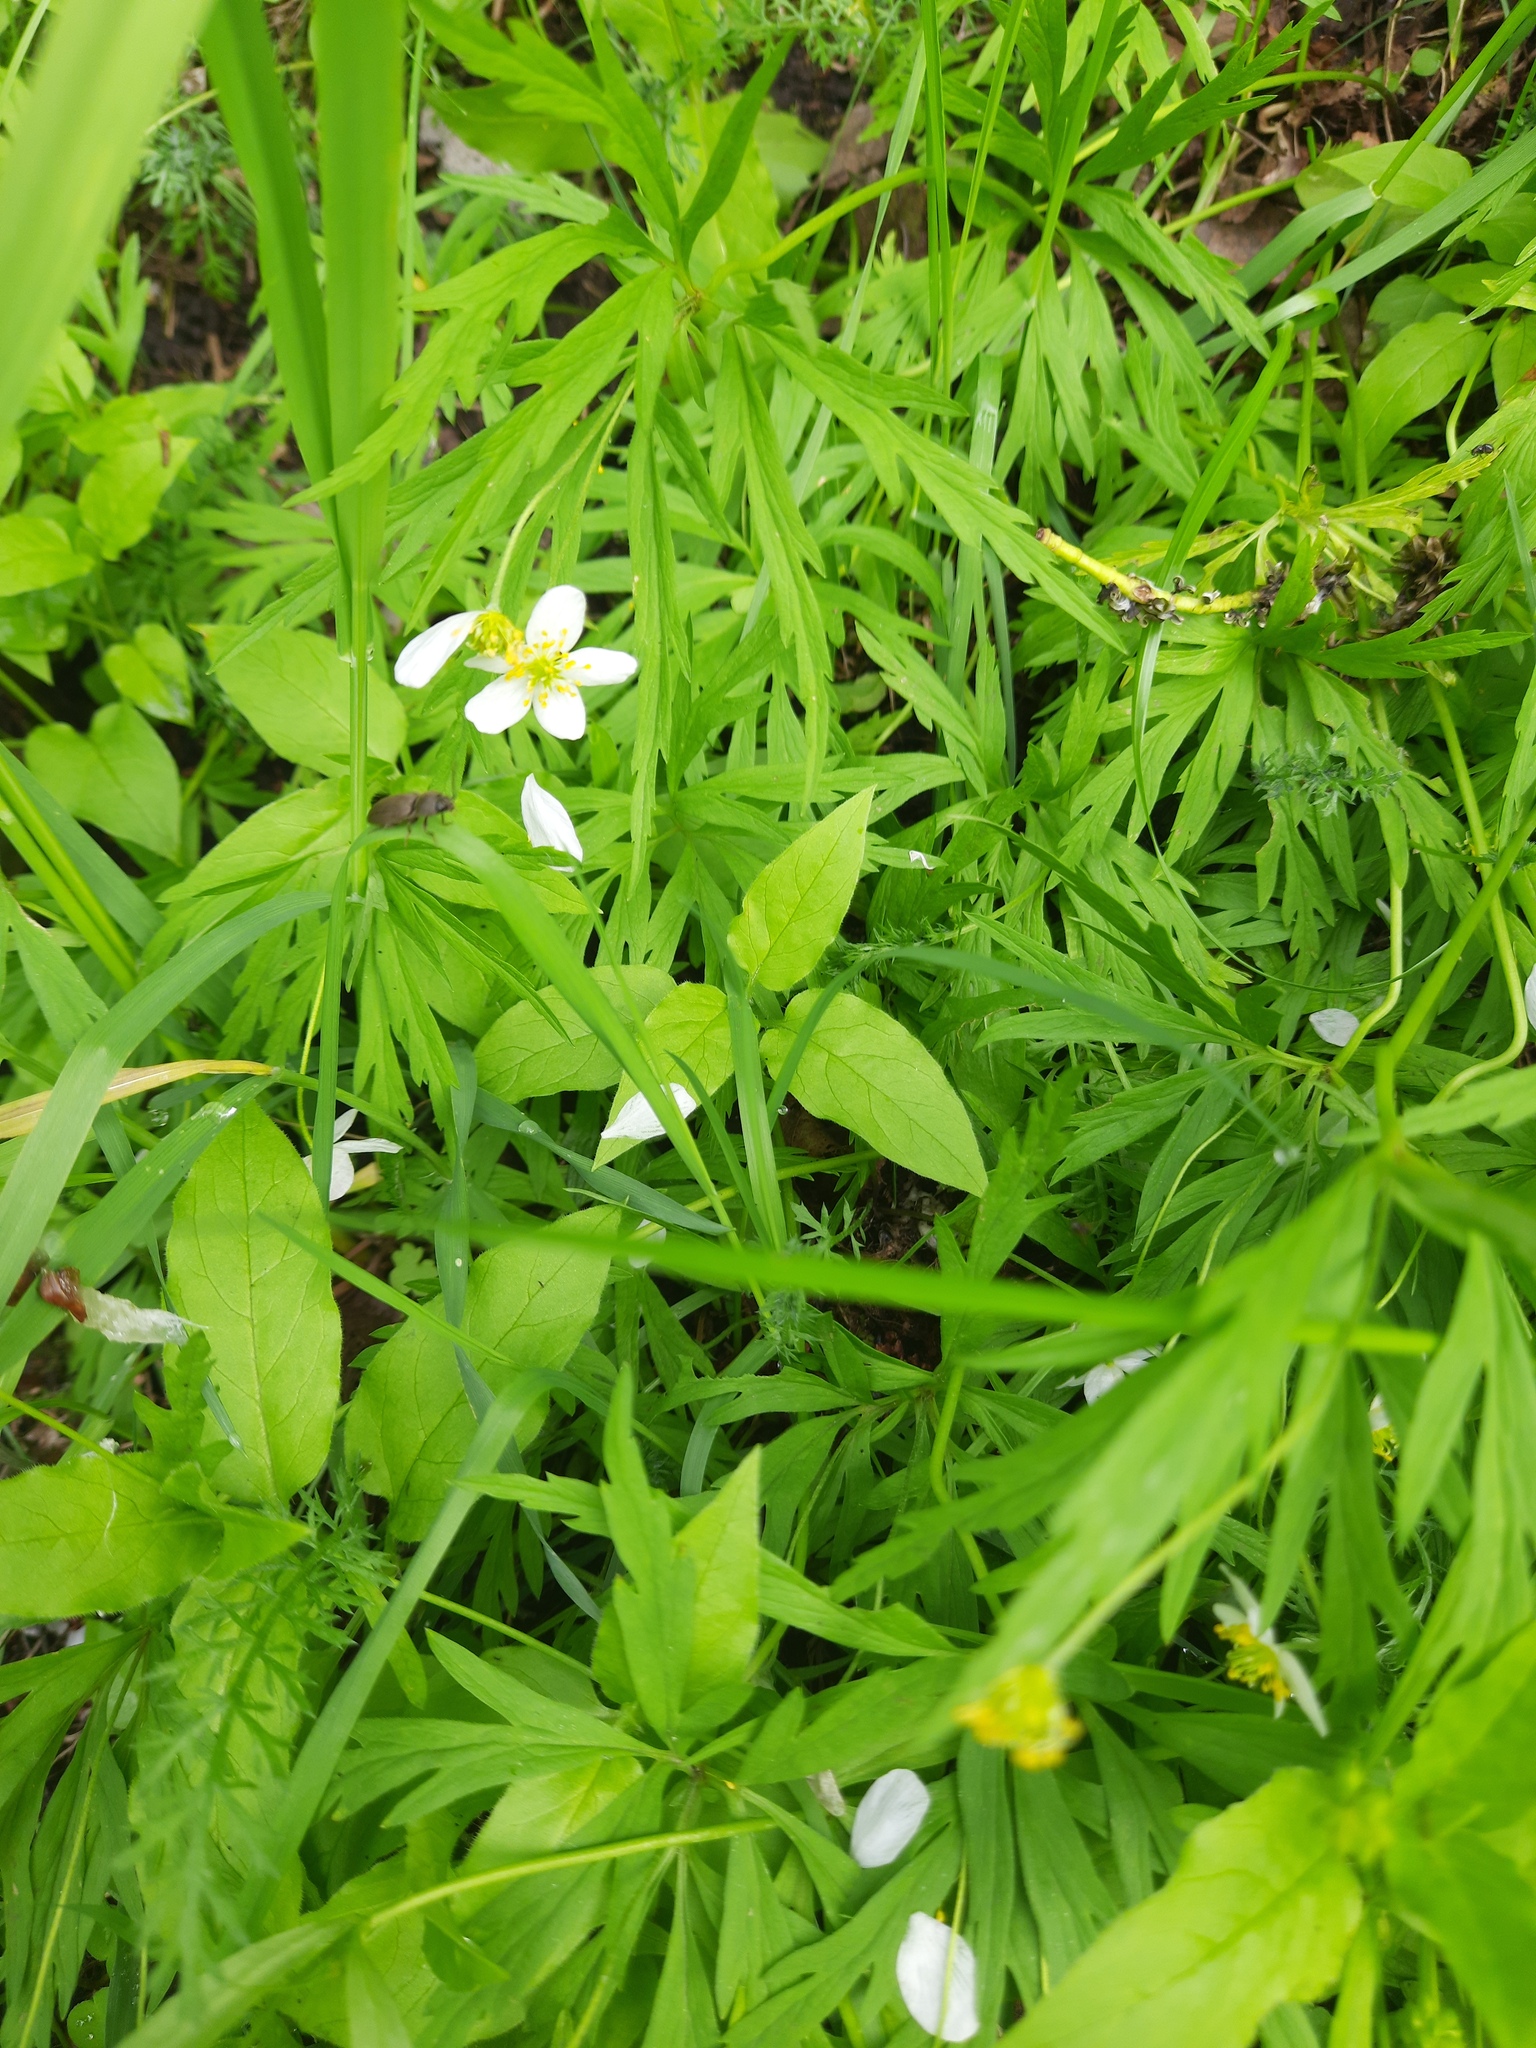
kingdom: Plantae
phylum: Tracheophyta
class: Magnoliopsida
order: Ranunculales
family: Ranunculaceae
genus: Anemonastrum
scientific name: Anemonastrum dichotomum
